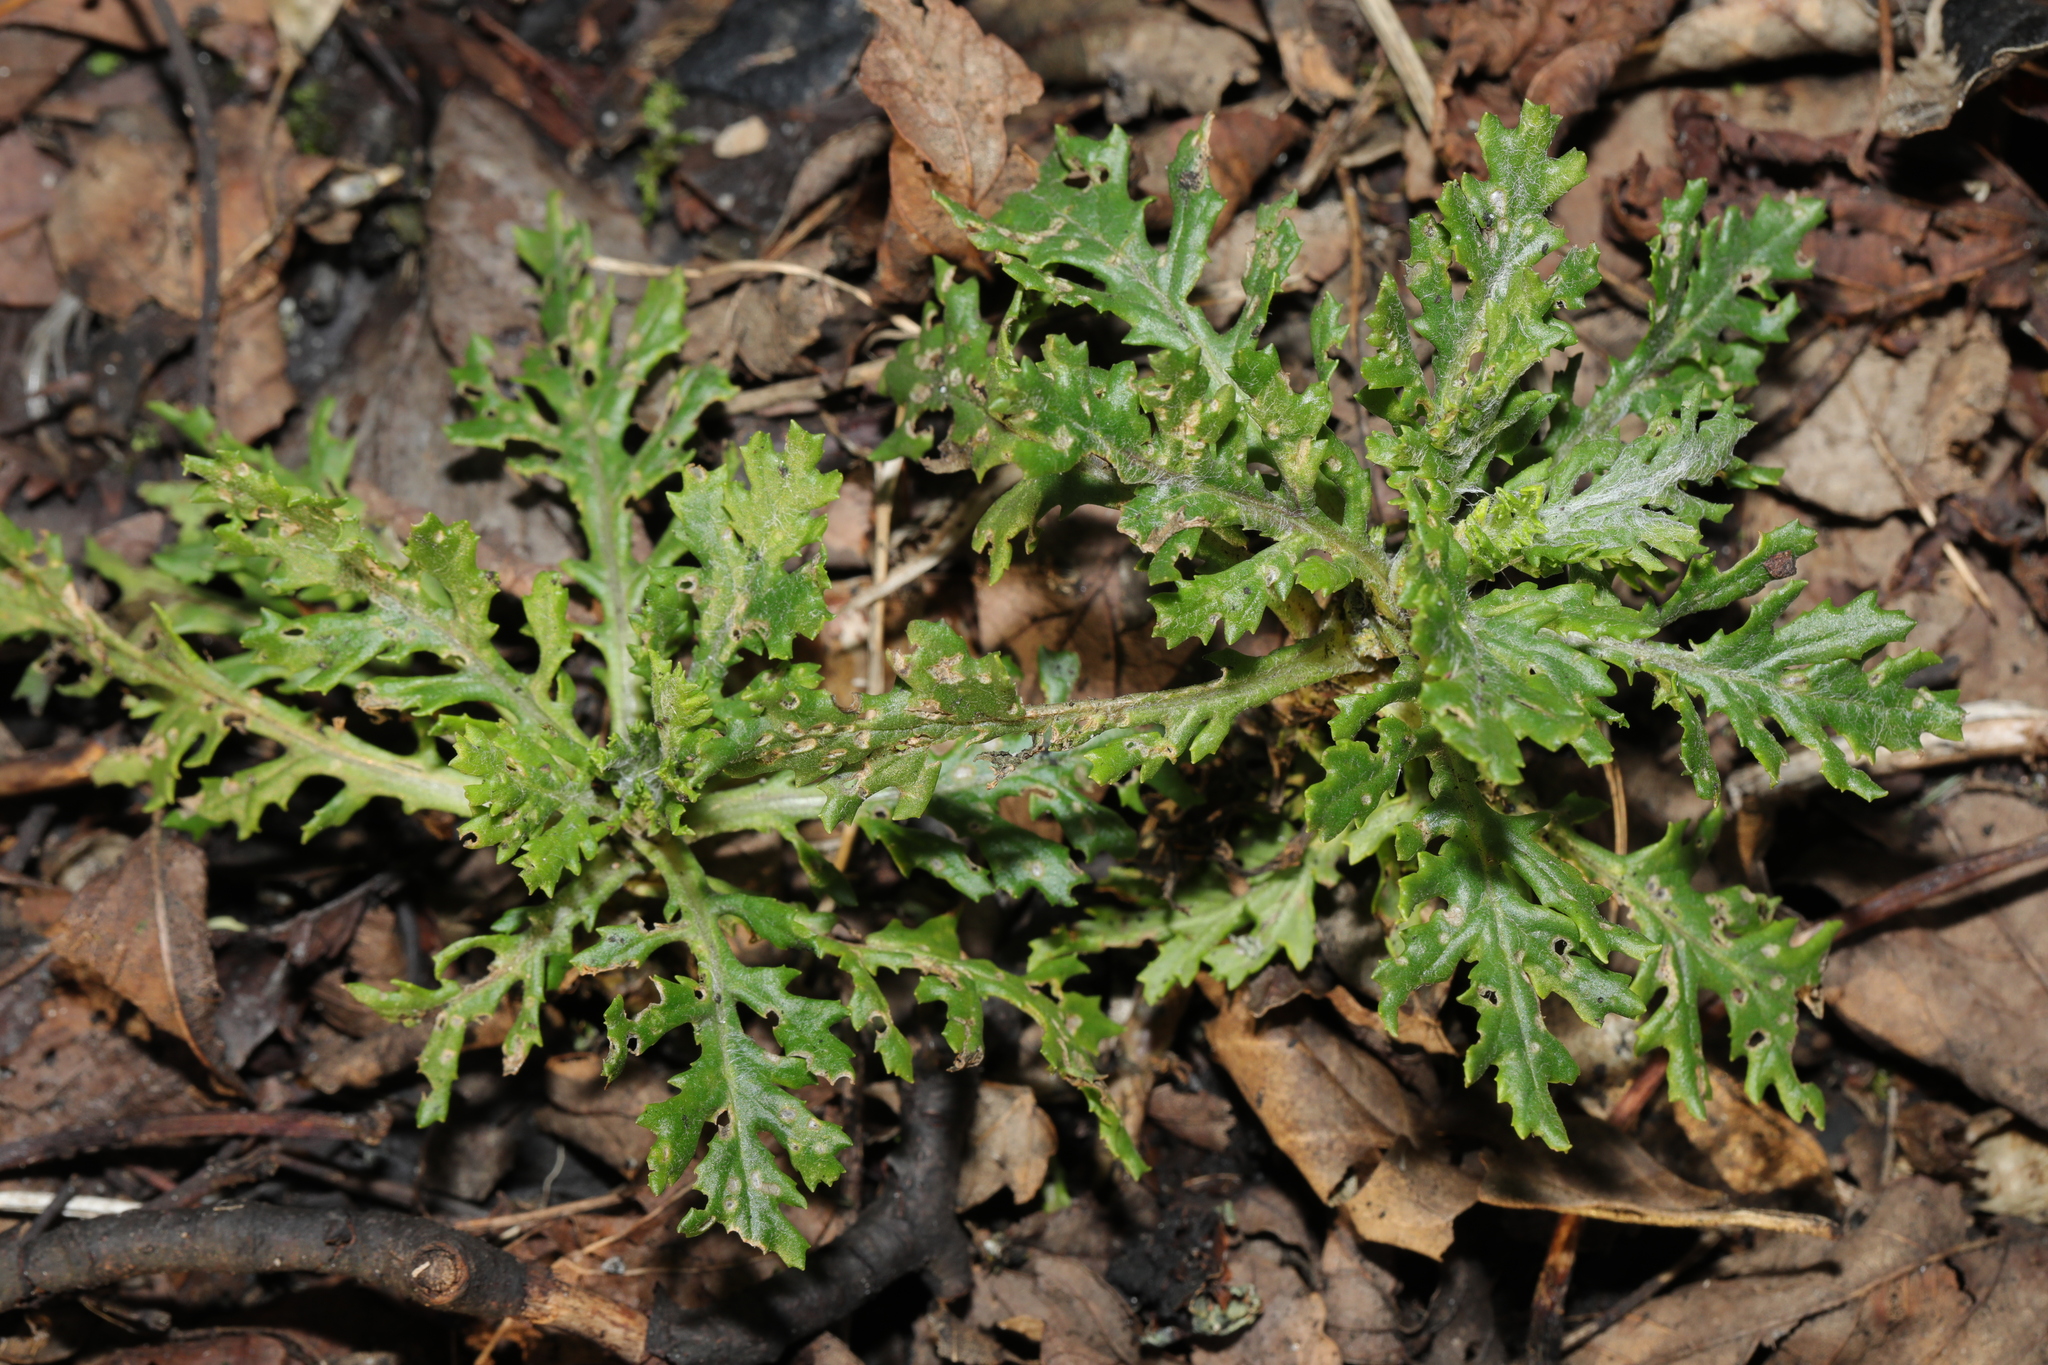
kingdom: Plantae
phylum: Tracheophyta
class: Magnoliopsida
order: Asterales
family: Asteraceae
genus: Senecio
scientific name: Senecio squalidus
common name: Oxford ragwort
